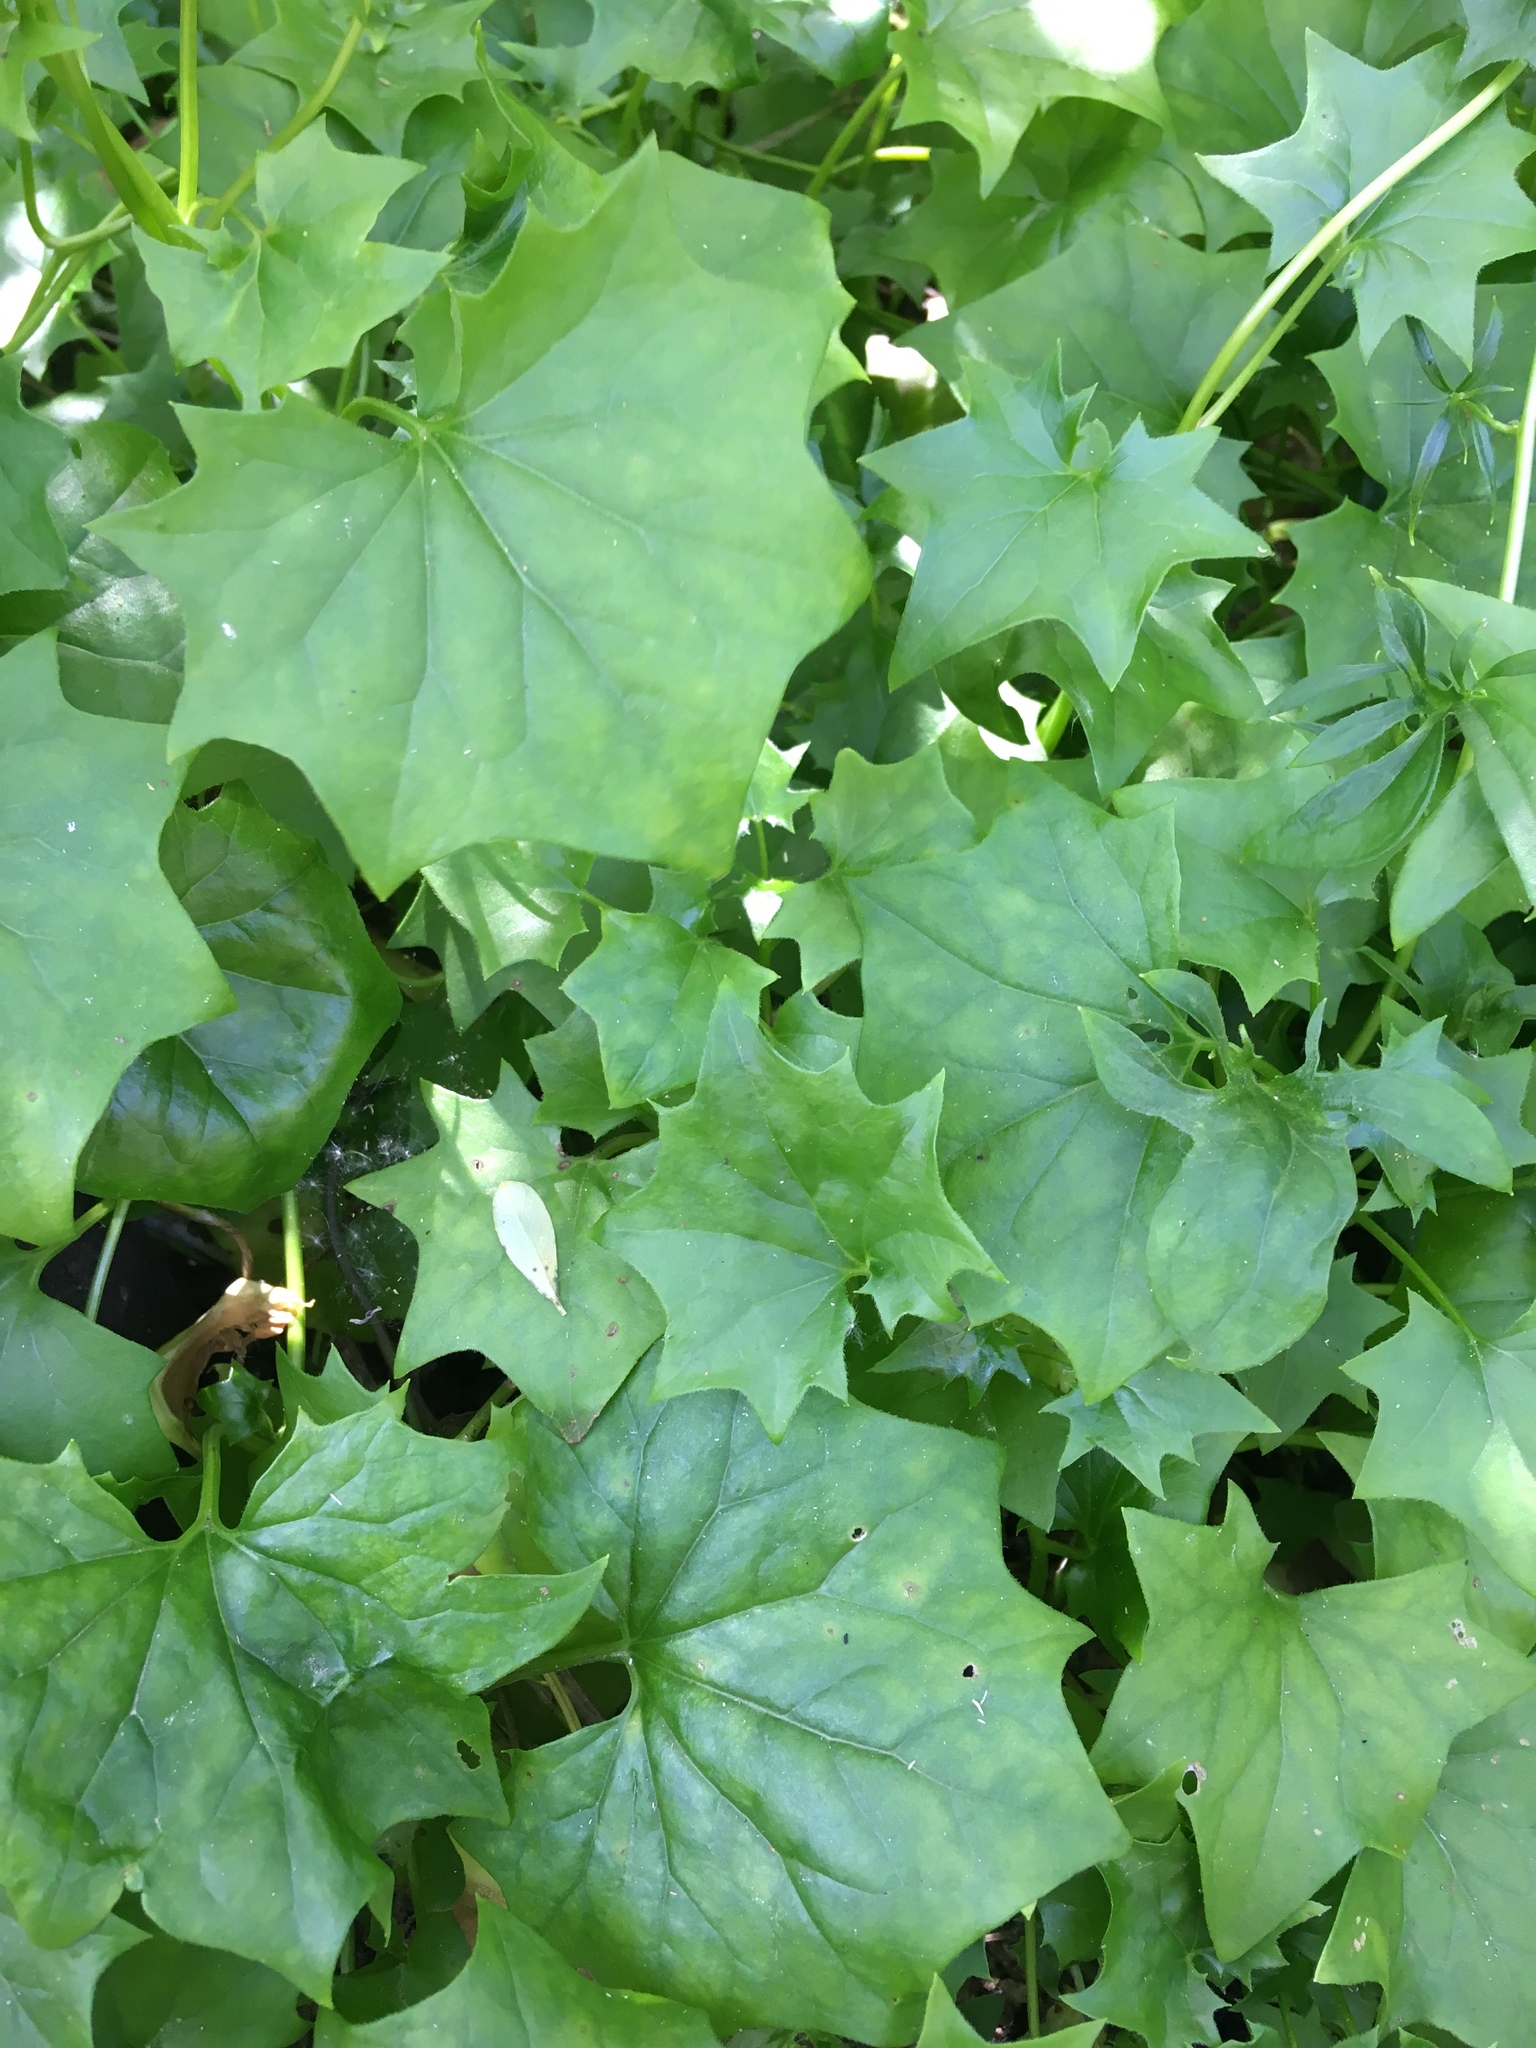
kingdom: Plantae
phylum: Tracheophyta
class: Magnoliopsida
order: Asterales
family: Asteraceae
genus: Delairea
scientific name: Delairea odorata
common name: Cape-ivy
